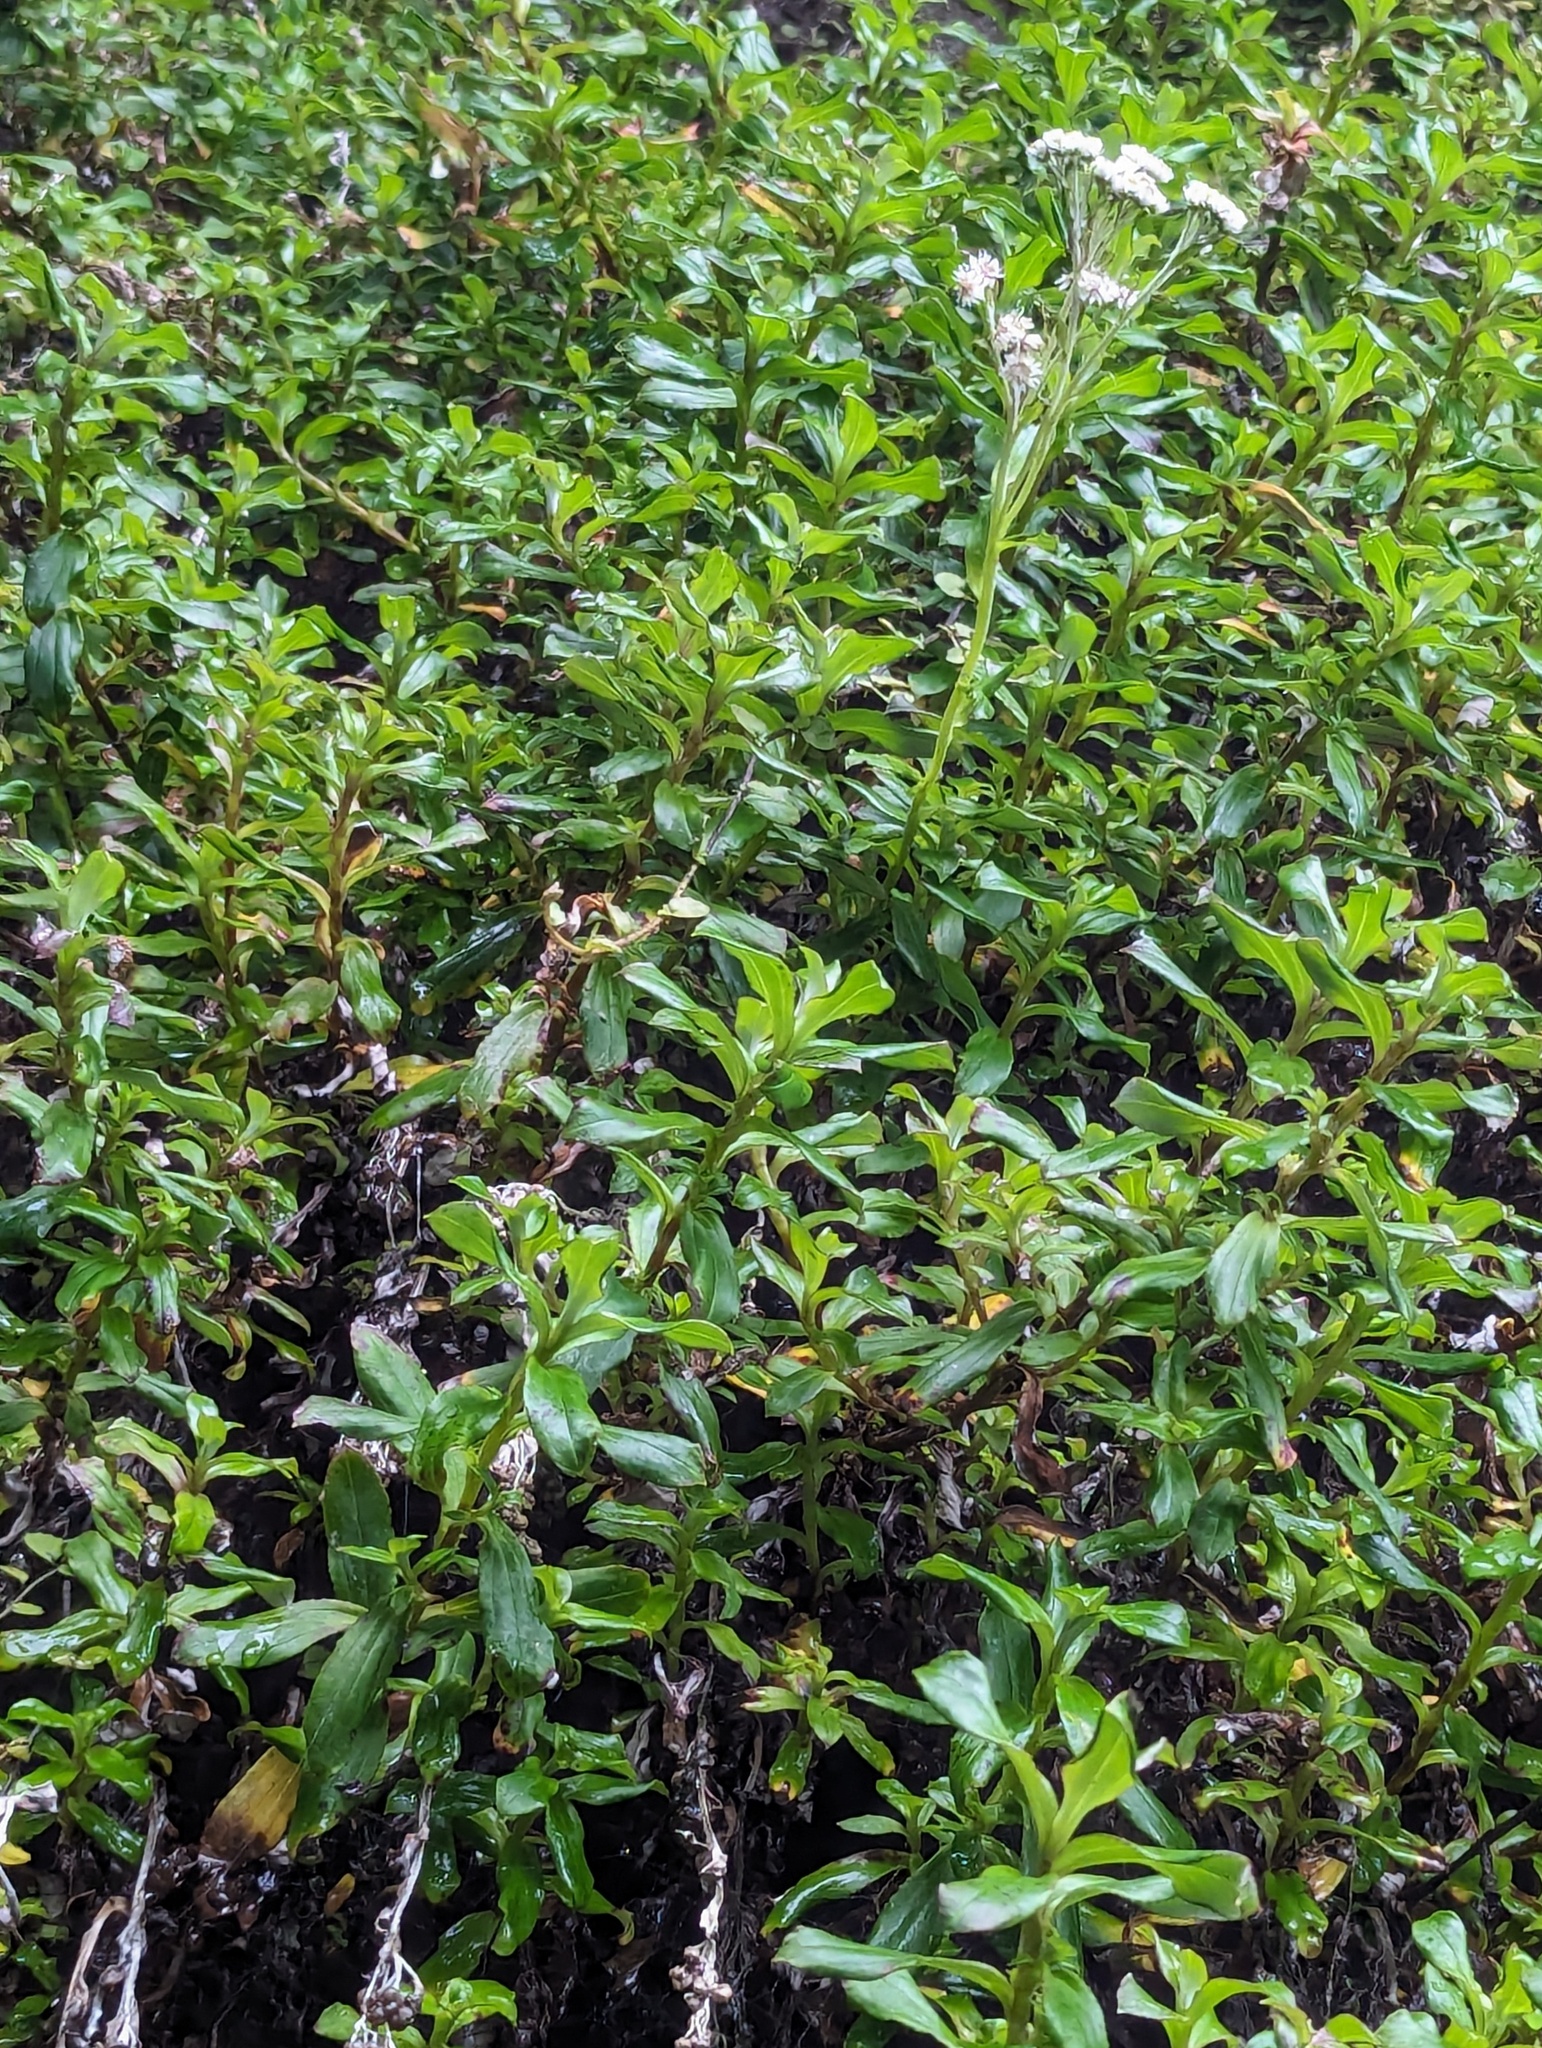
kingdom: Plantae
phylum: Tracheophyta
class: Magnoliopsida
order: Asterales
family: Asteraceae
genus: Anaphalioides
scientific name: Anaphalioides trinervis
